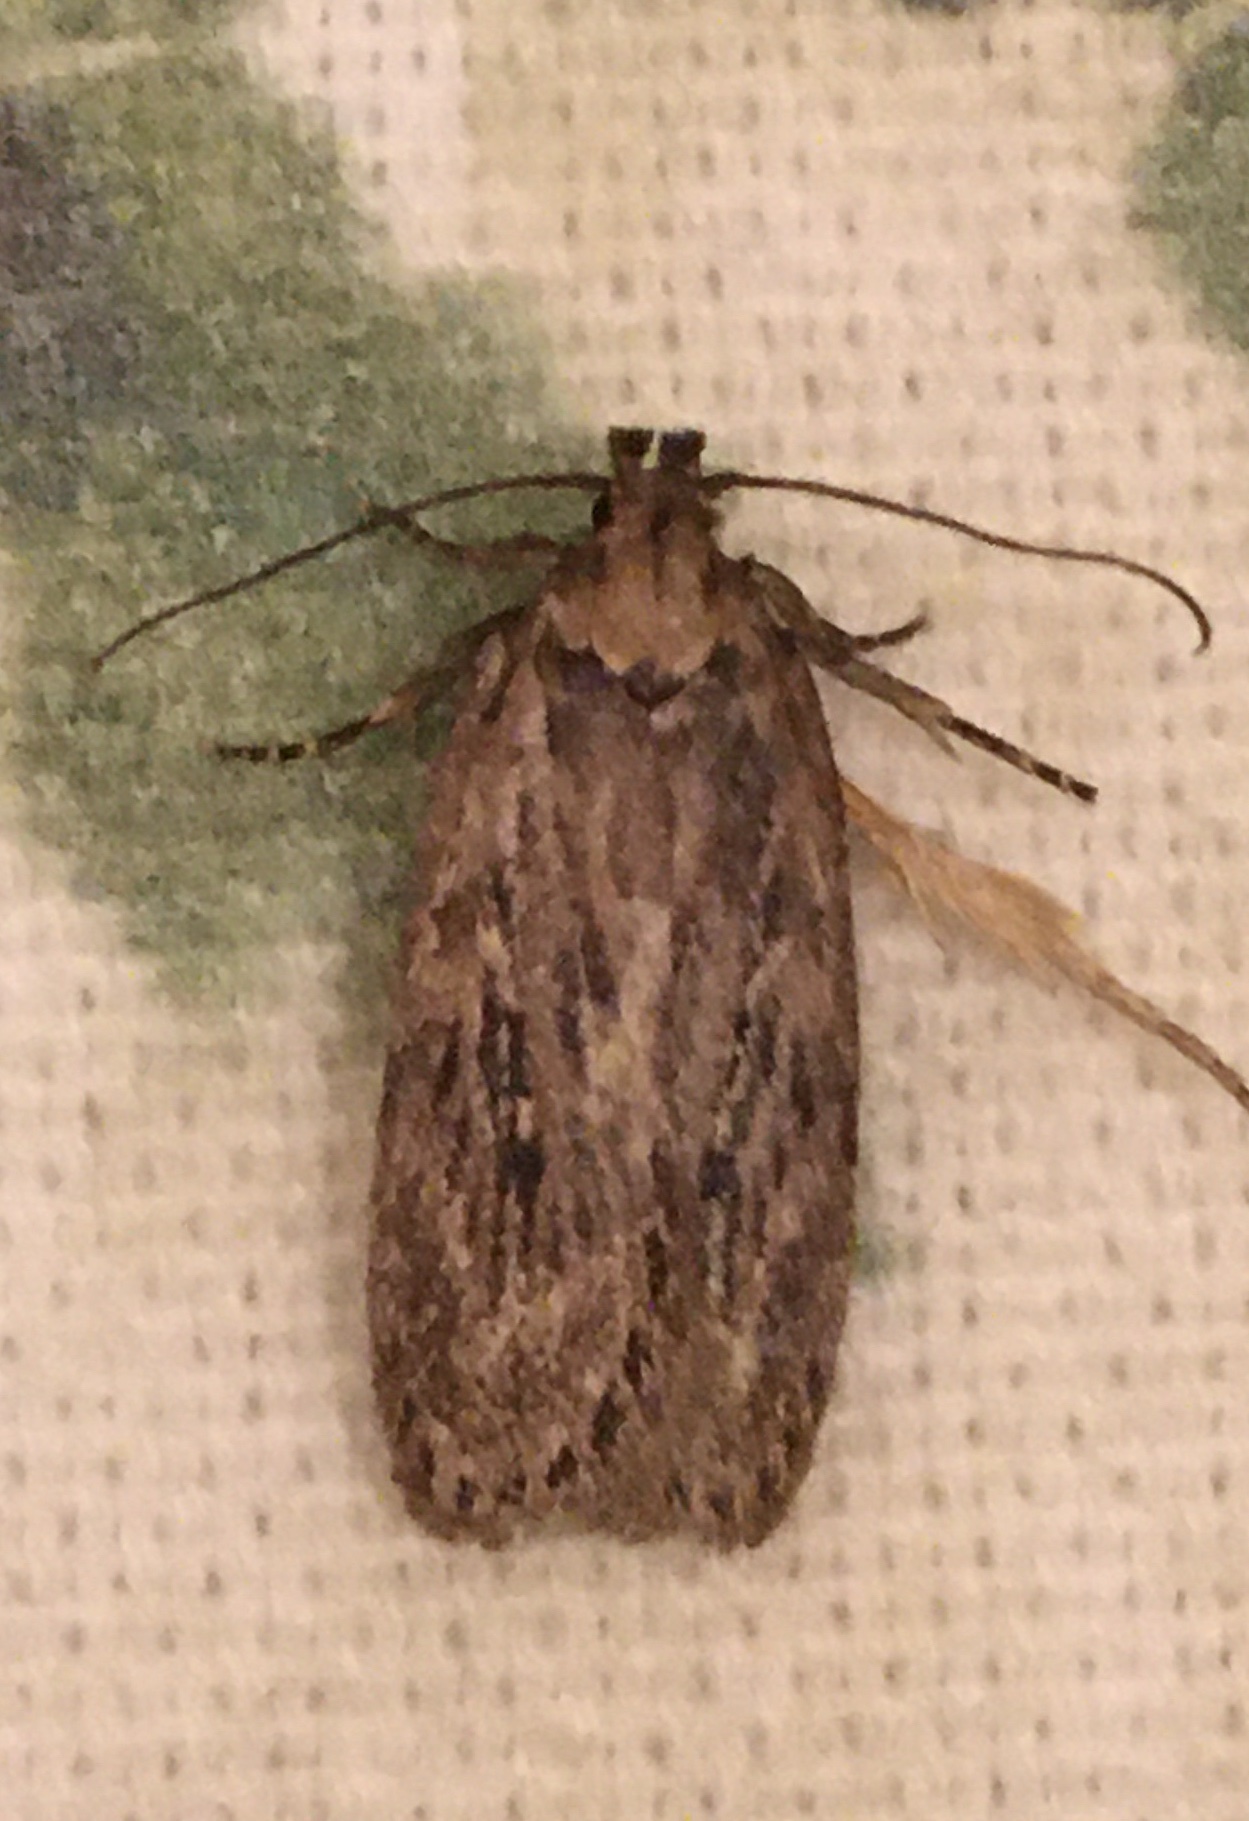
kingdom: Animalia
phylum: Arthropoda
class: Insecta
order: Lepidoptera
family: Depressariidae
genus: Depressaria
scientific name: Depressaria radiella
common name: Parsnip moth
